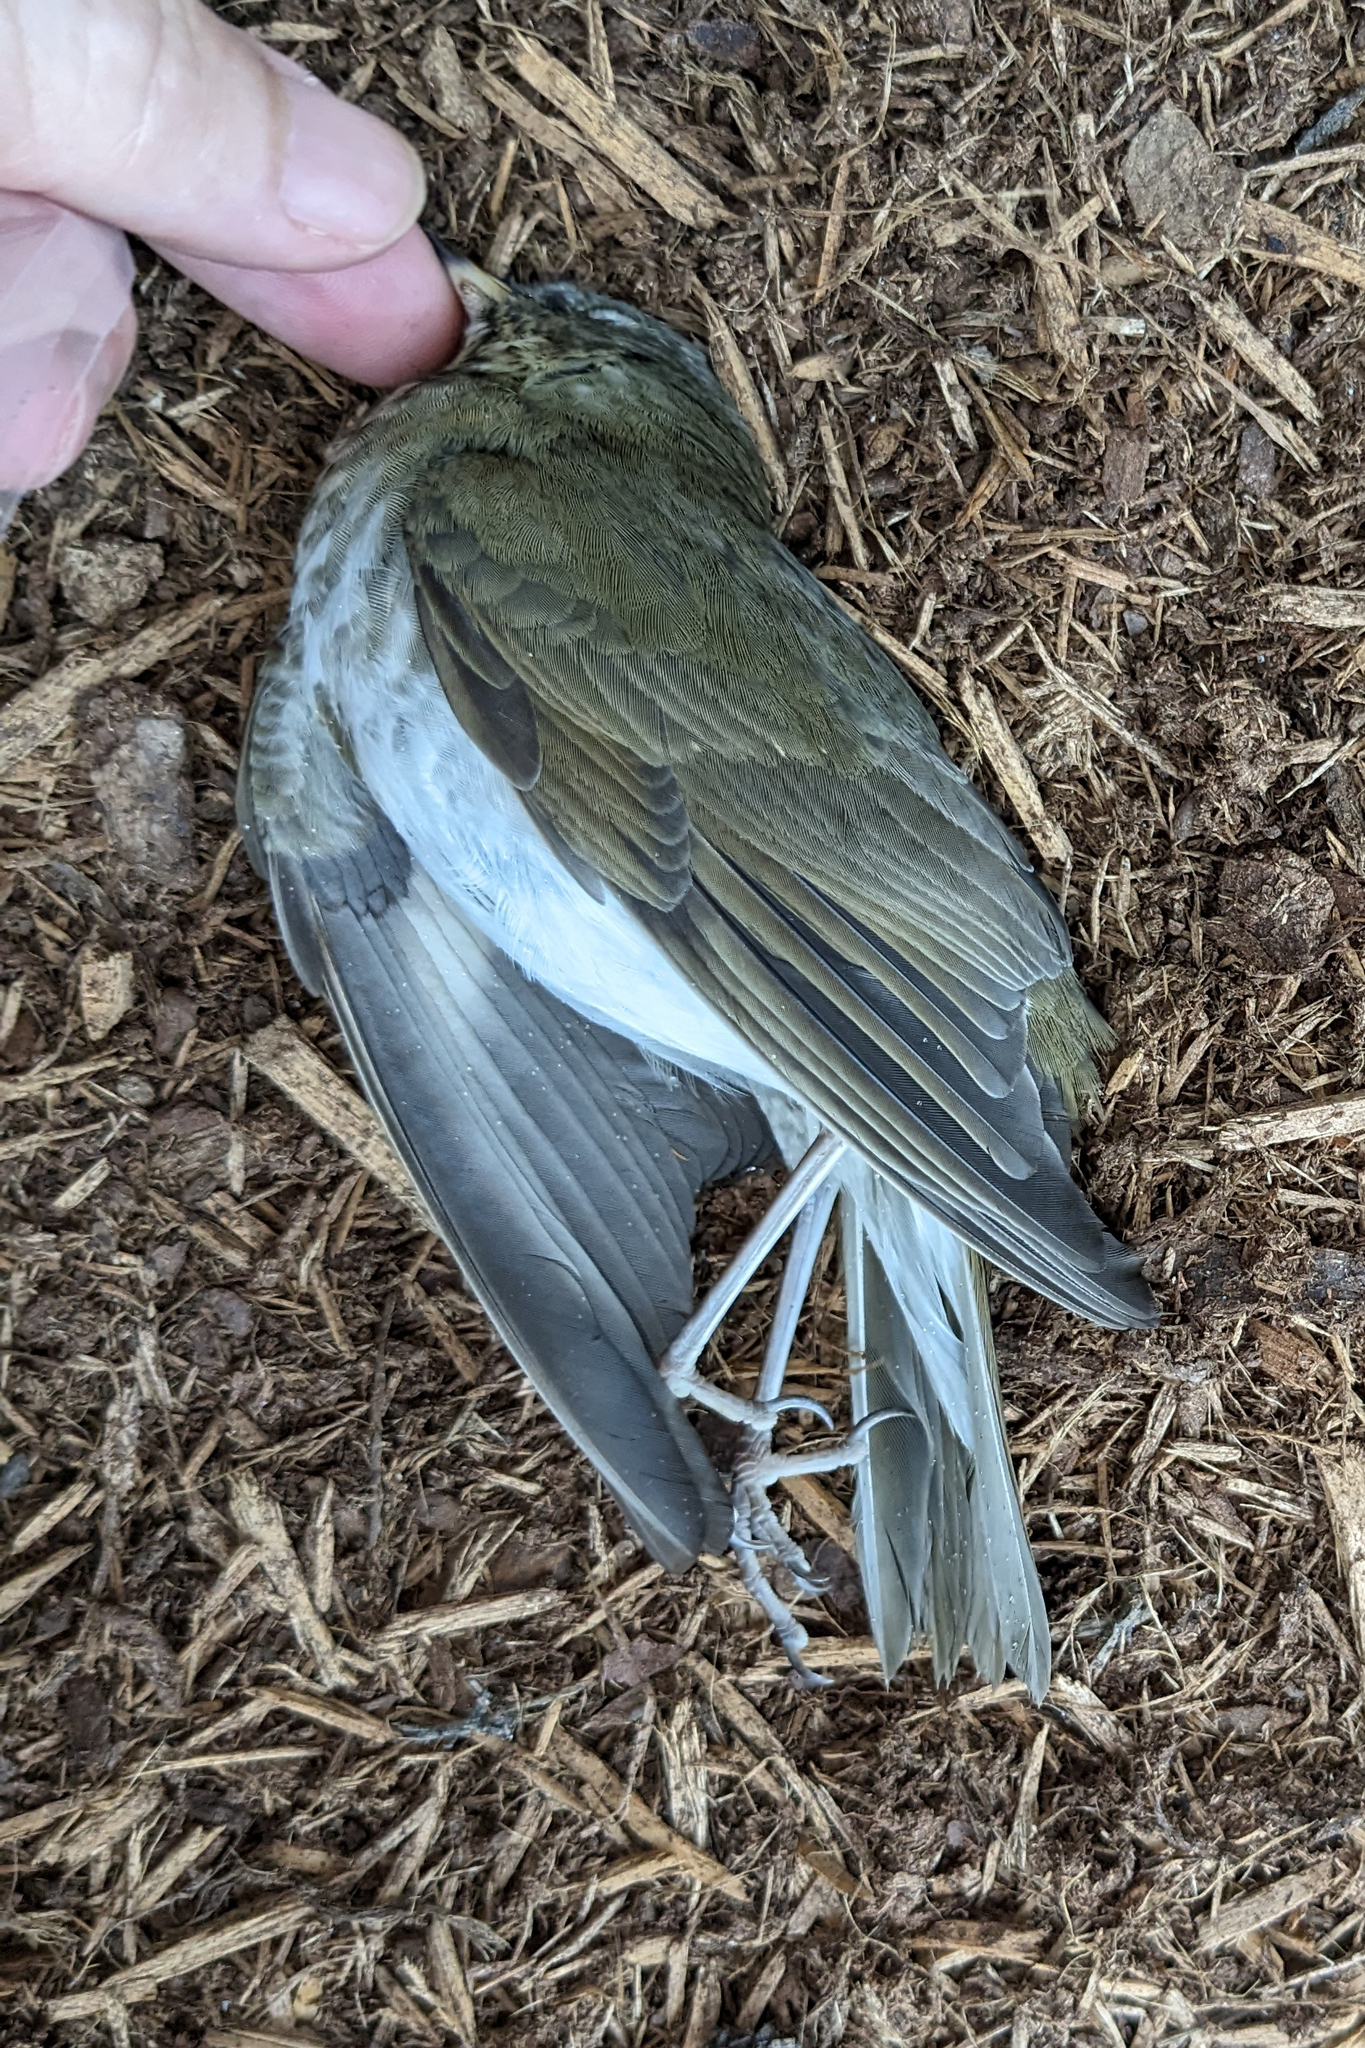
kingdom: Animalia
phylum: Chordata
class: Aves
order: Passeriformes
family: Turdidae
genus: Catharus
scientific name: Catharus minimus
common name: Grey-cheeked thrush
